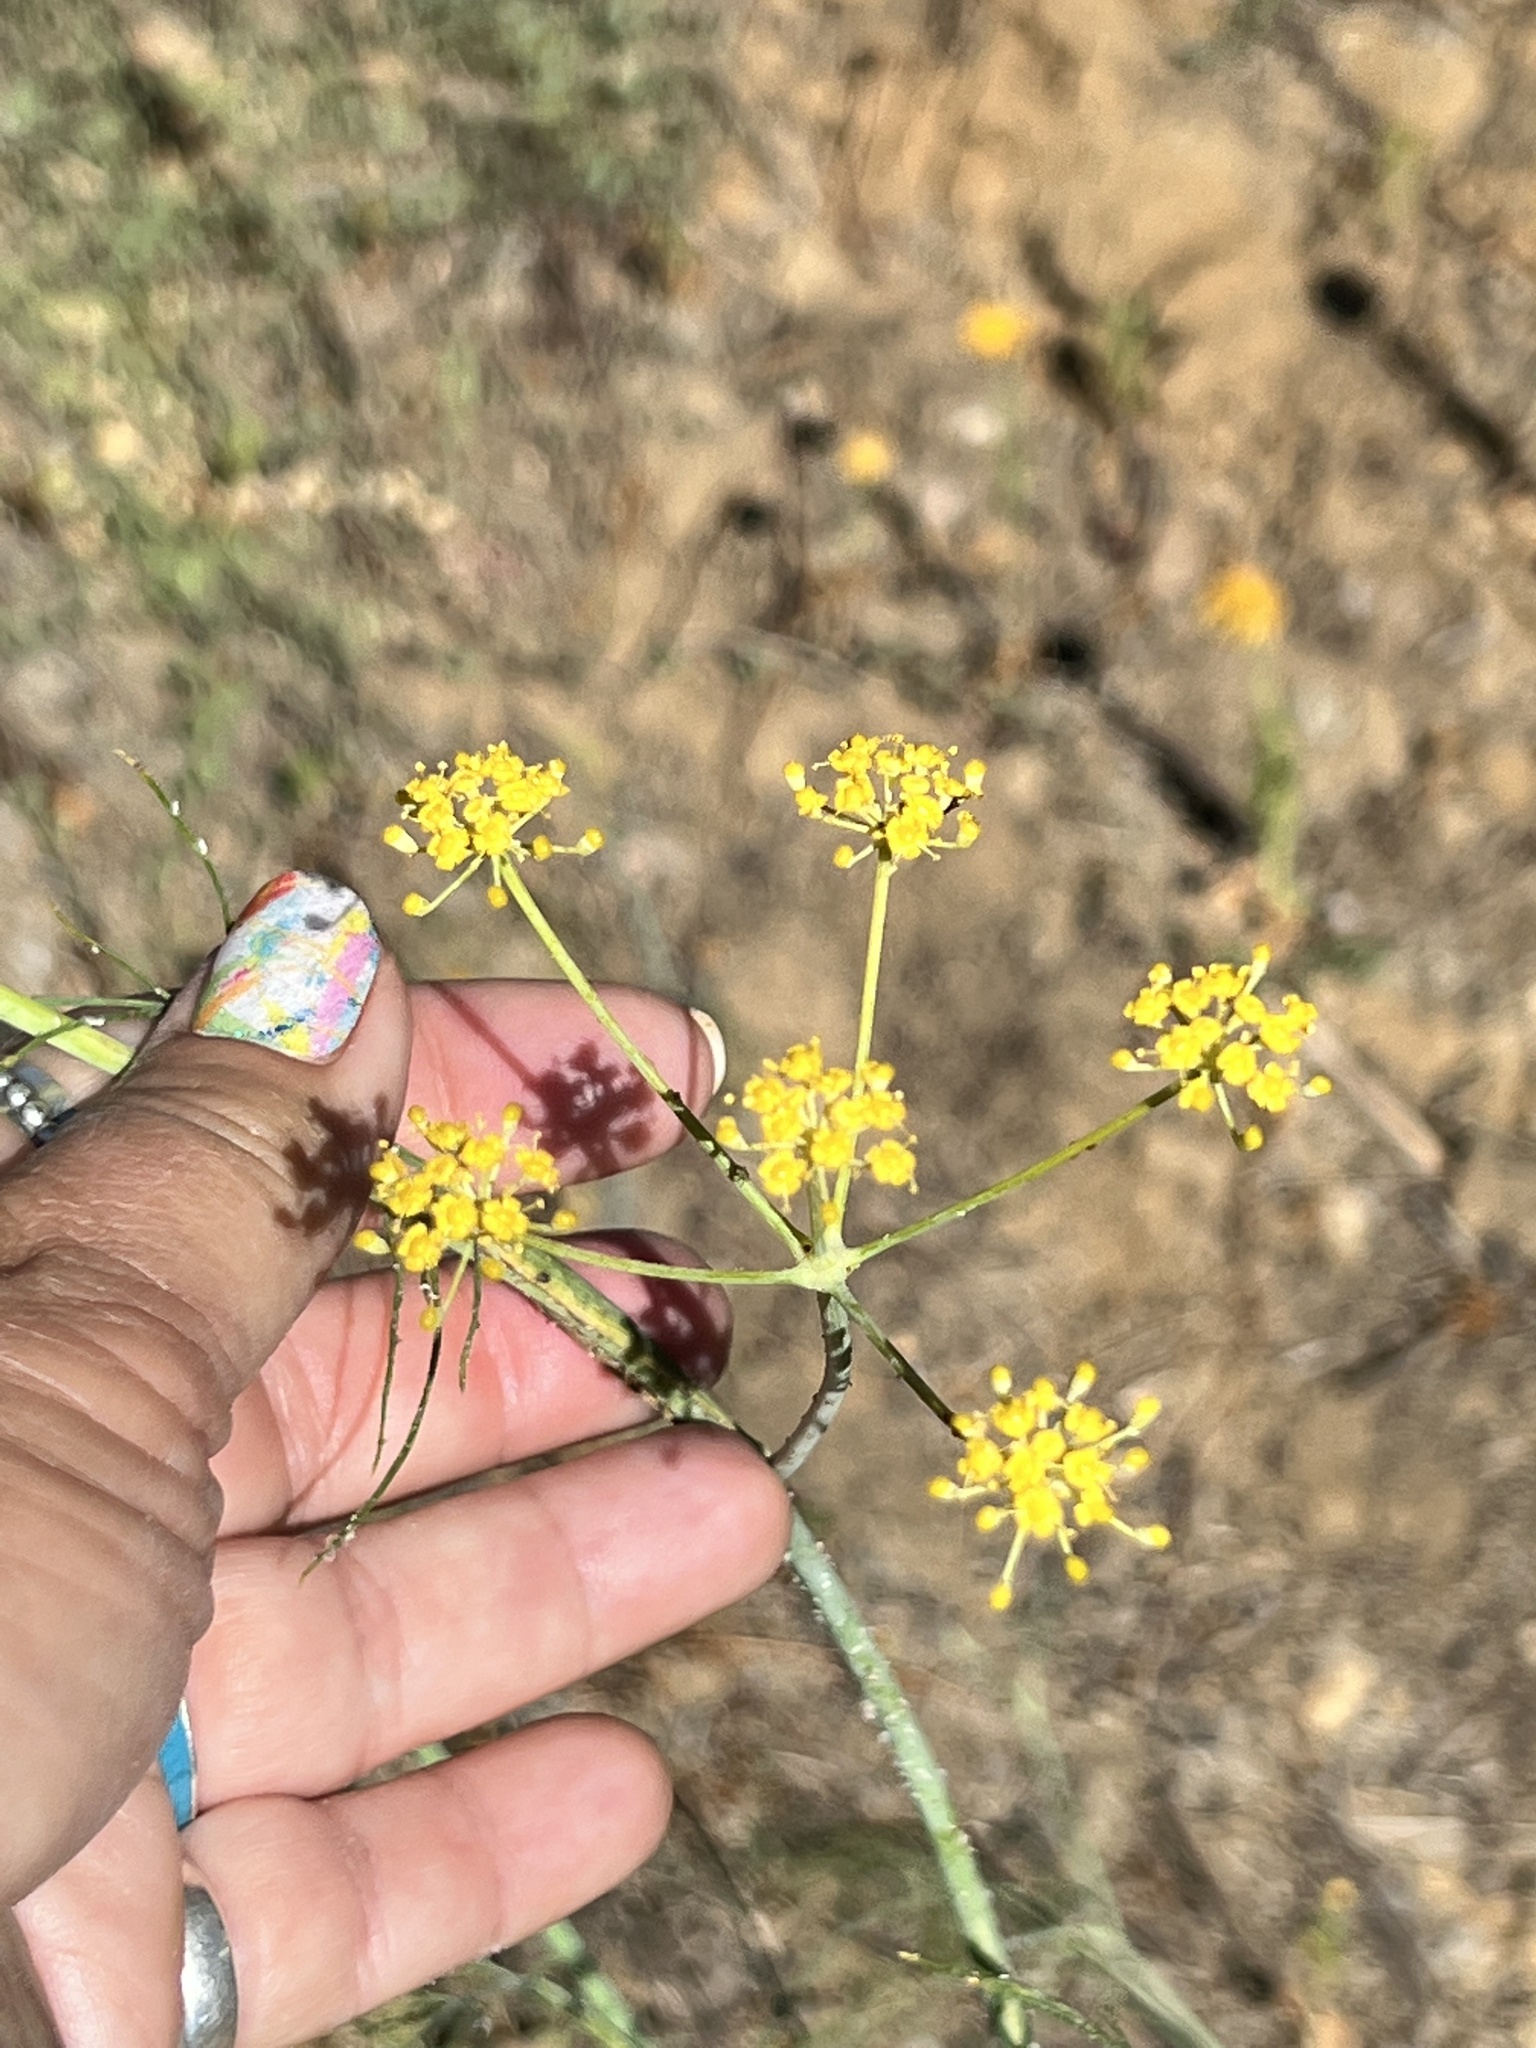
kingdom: Plantae
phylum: Tracheophyta
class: Magnoliopsida
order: Apiales
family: Apiaceae
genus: Foeniculum
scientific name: Foeniculum vulgare
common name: Fennel
